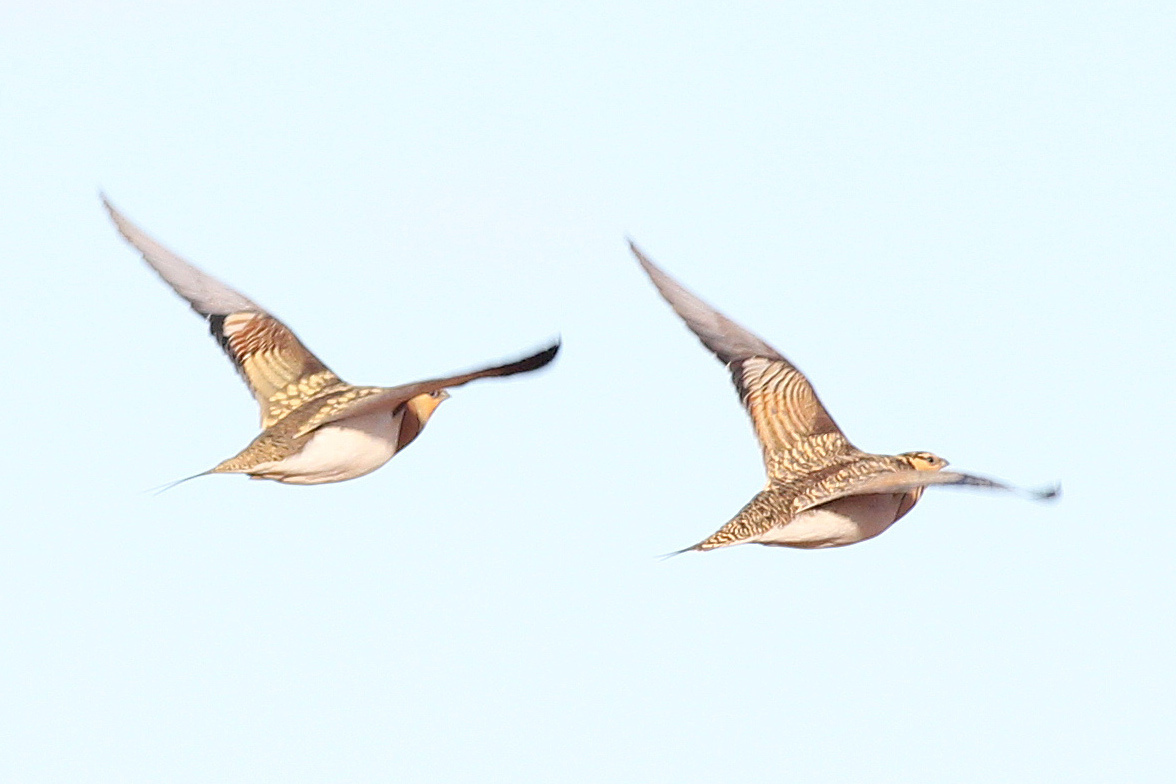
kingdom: Animalia
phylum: Chordata
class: Aves
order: Pteroclidiformes
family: Pteroclididae
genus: Pterocles
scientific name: Pterocles alchata
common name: Pin-tailed sandgrouse
